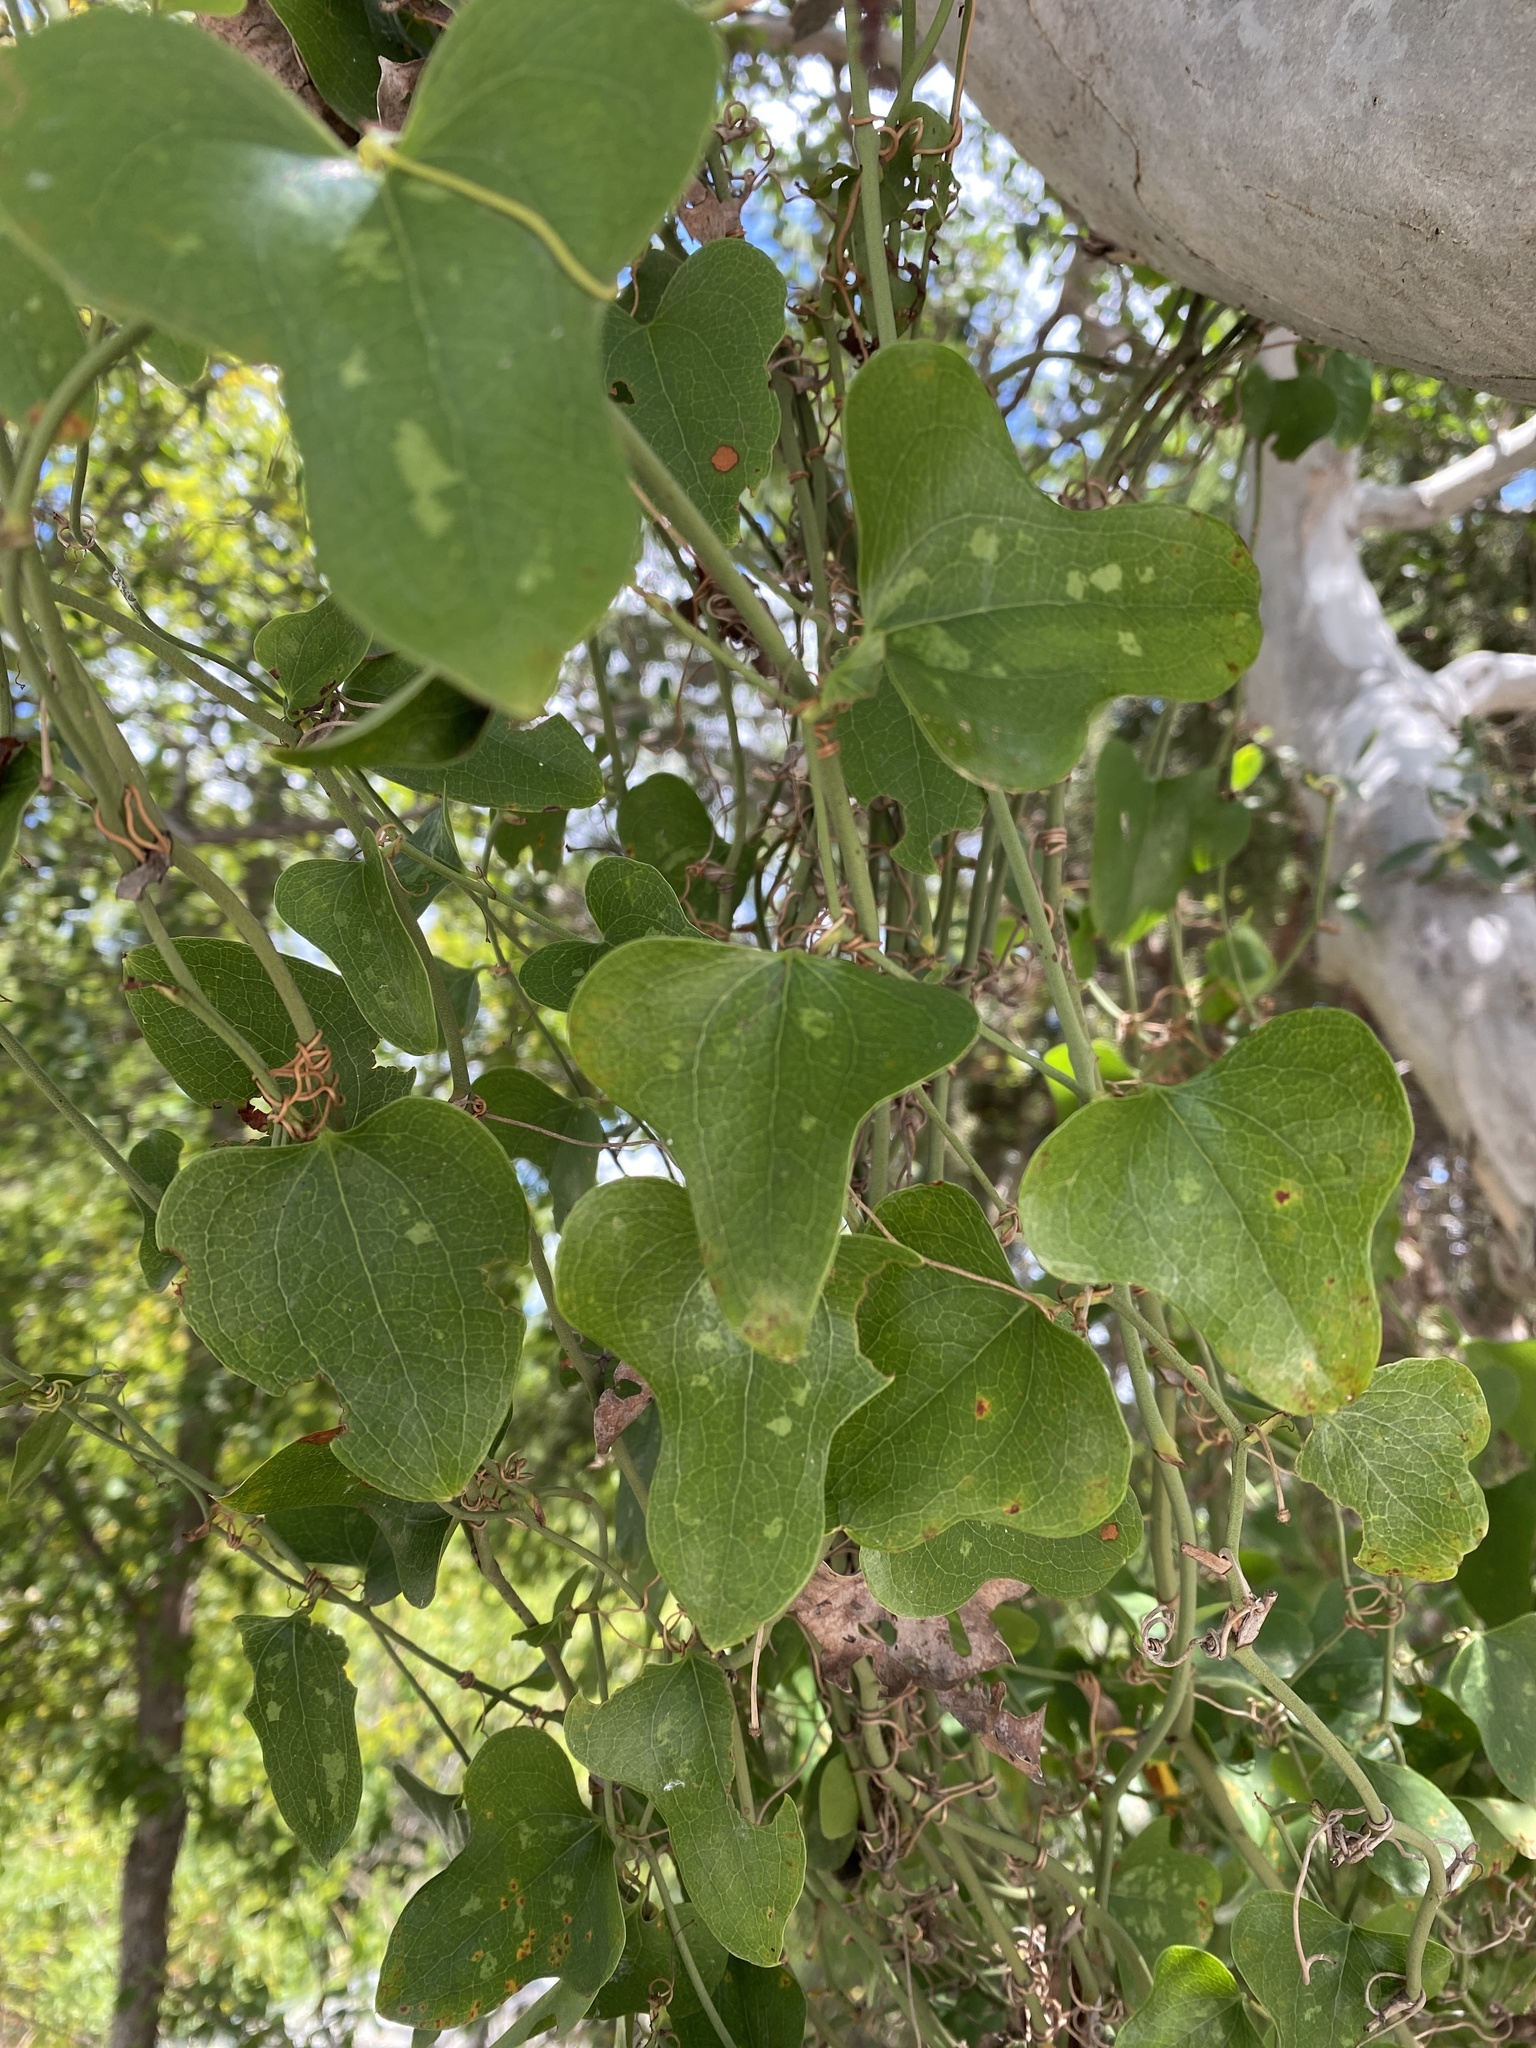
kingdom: Plantae
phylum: Tracheophyta
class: Liliopsida
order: Liliales
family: Smilacaceae
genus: Smilax
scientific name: Smilax bona-nox
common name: Catbrier
